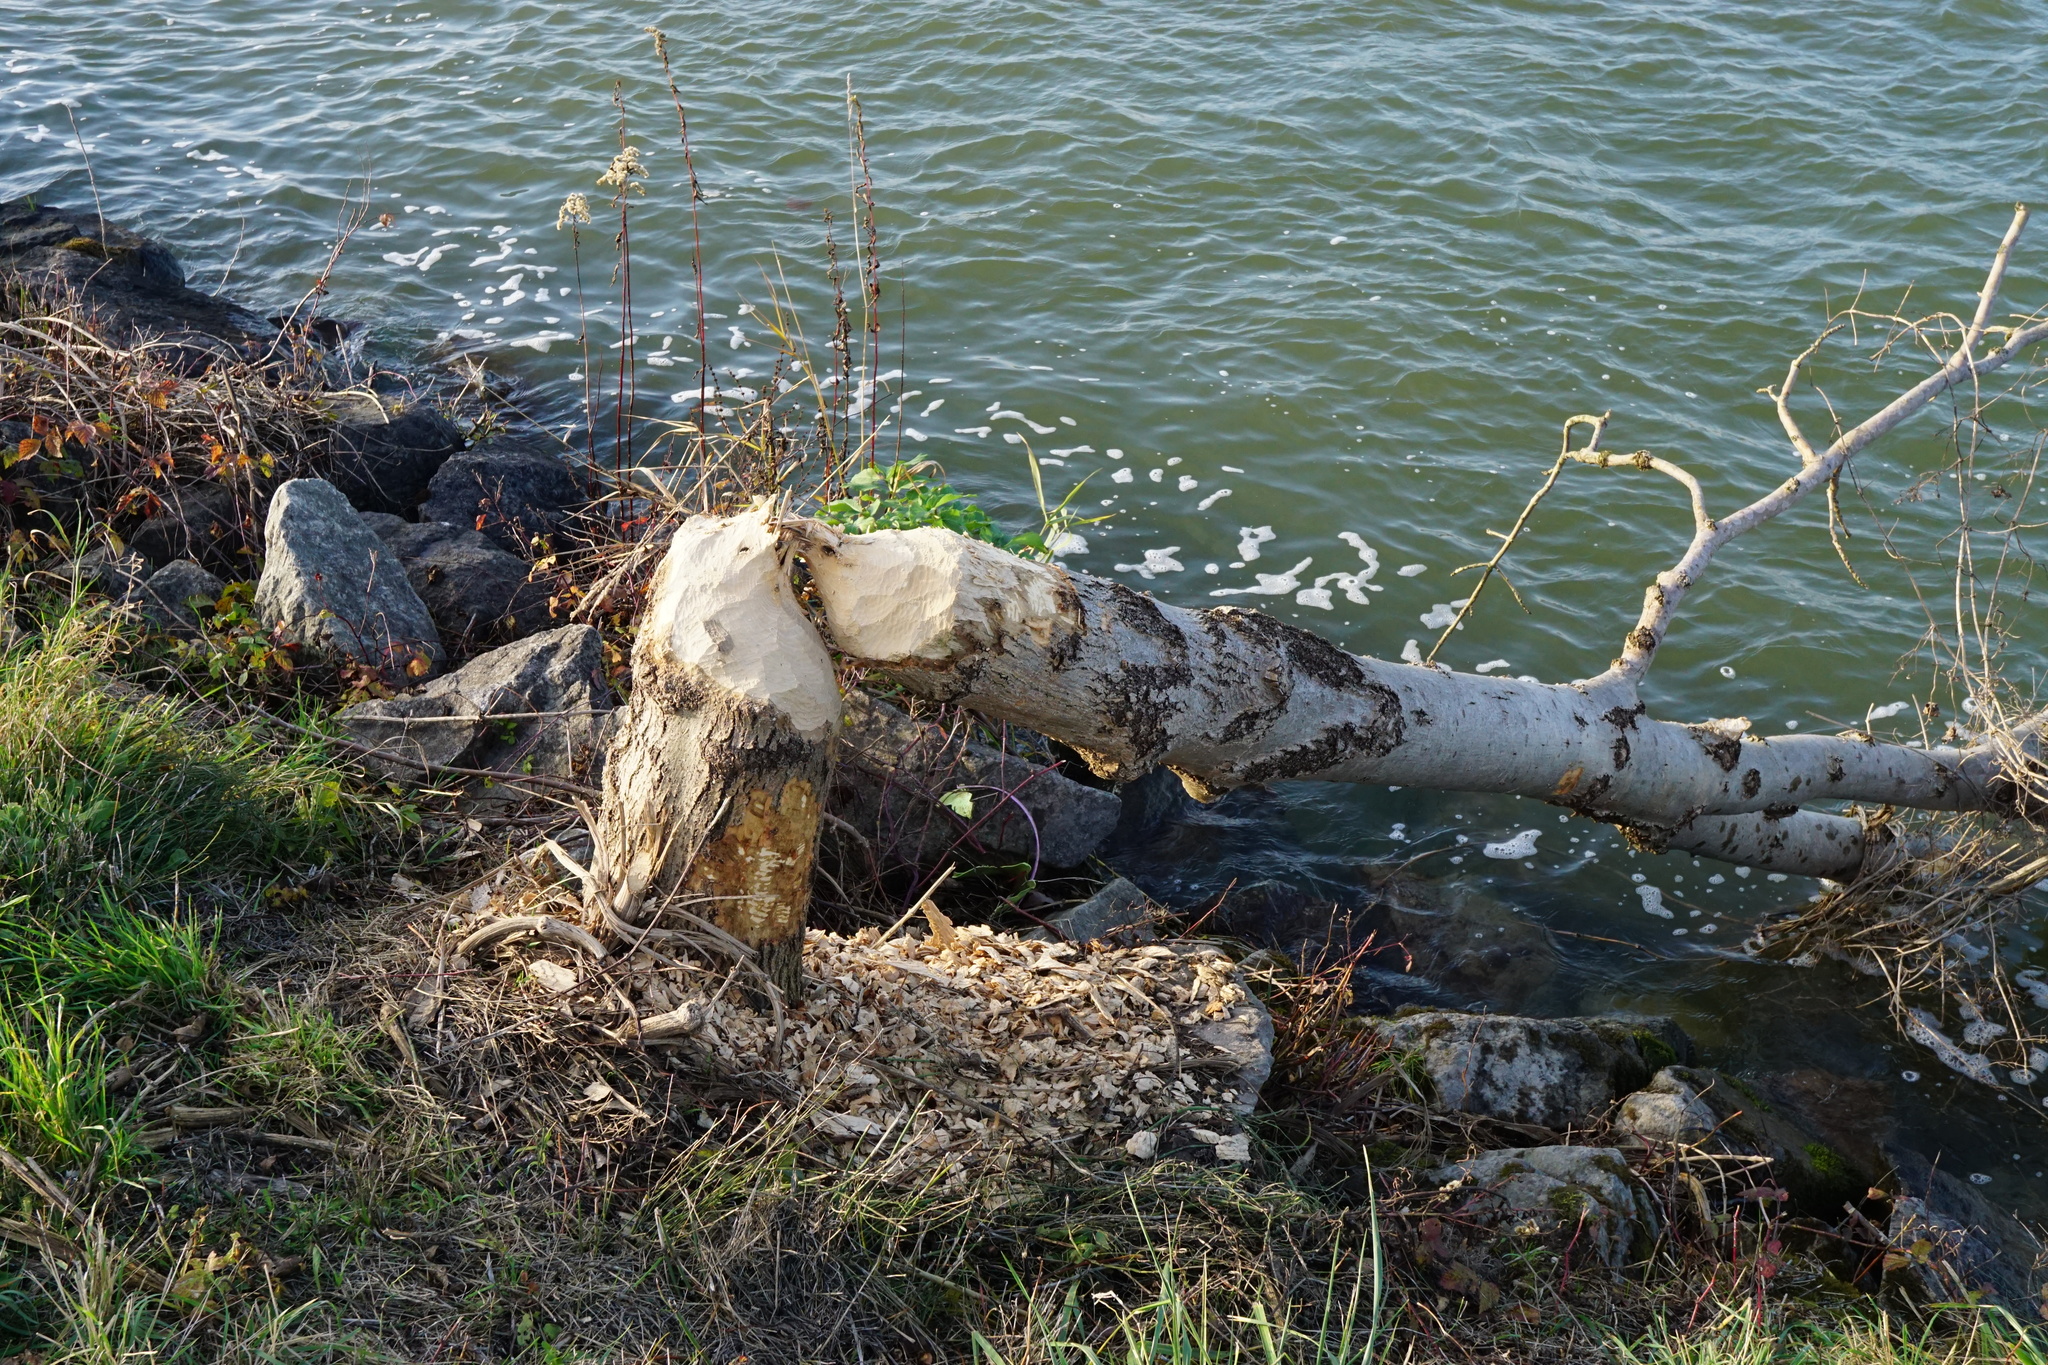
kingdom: Animalia
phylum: Chordata
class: Mammalia
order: Rodentia
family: Castoridae
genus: Castor
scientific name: Castor fiber
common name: Eurasian beaver
